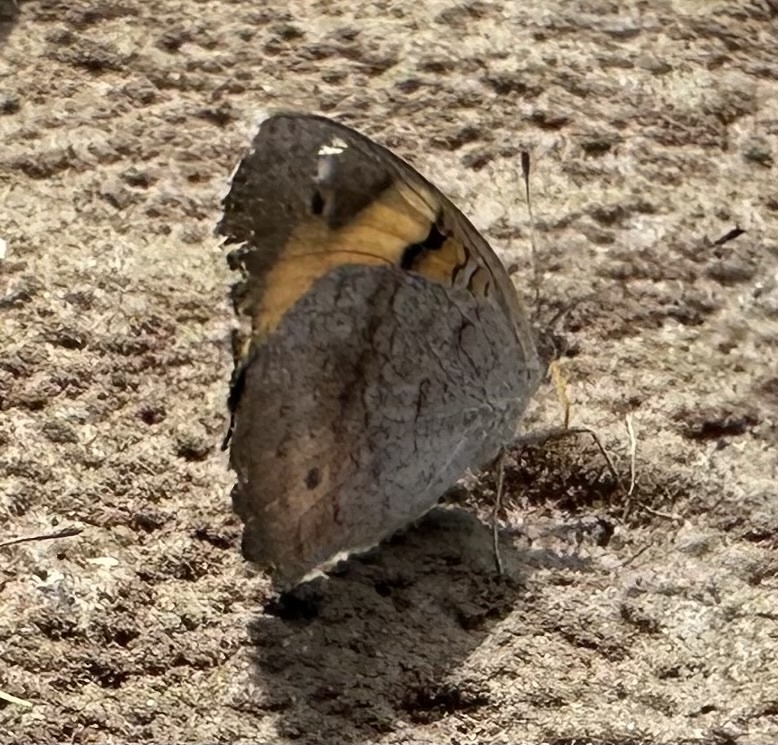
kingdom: Animalia
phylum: Arthropoda
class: Insecta
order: Lepidoptera
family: Nymphalidae
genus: Junonia
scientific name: Junonia hierta
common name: Yellow pansy
